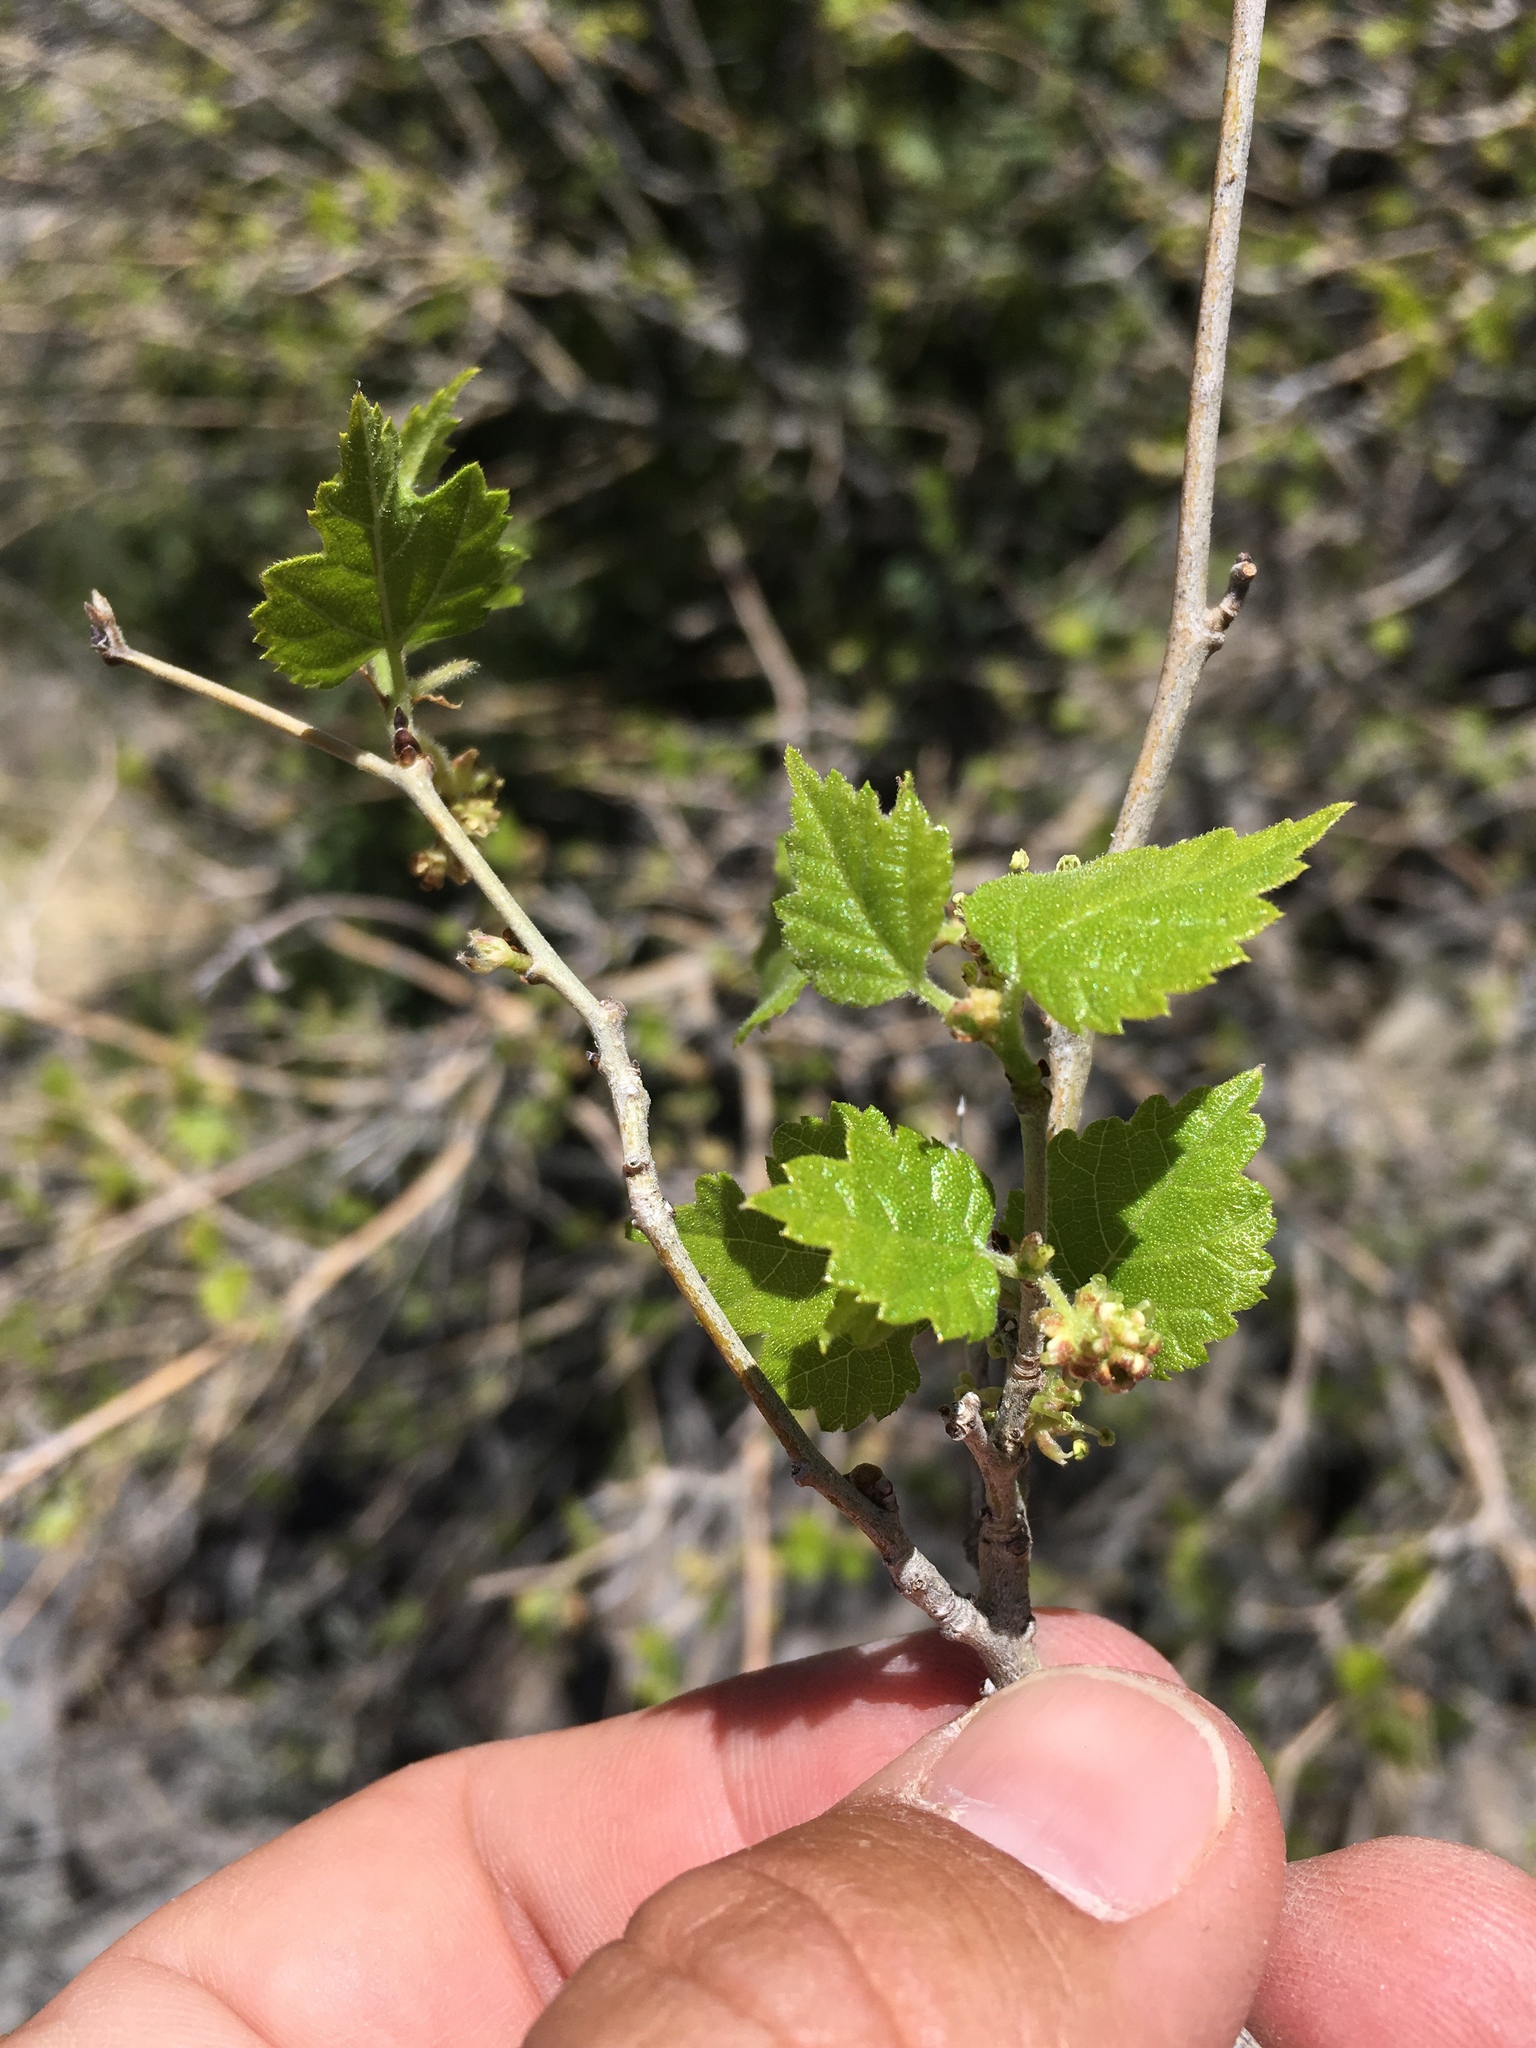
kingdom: Plantae
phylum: Tracheophyta
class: Magnoliopsida
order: Rosales
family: Moraceae
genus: Morus
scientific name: Morus microphylla
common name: Mexican mulberry
